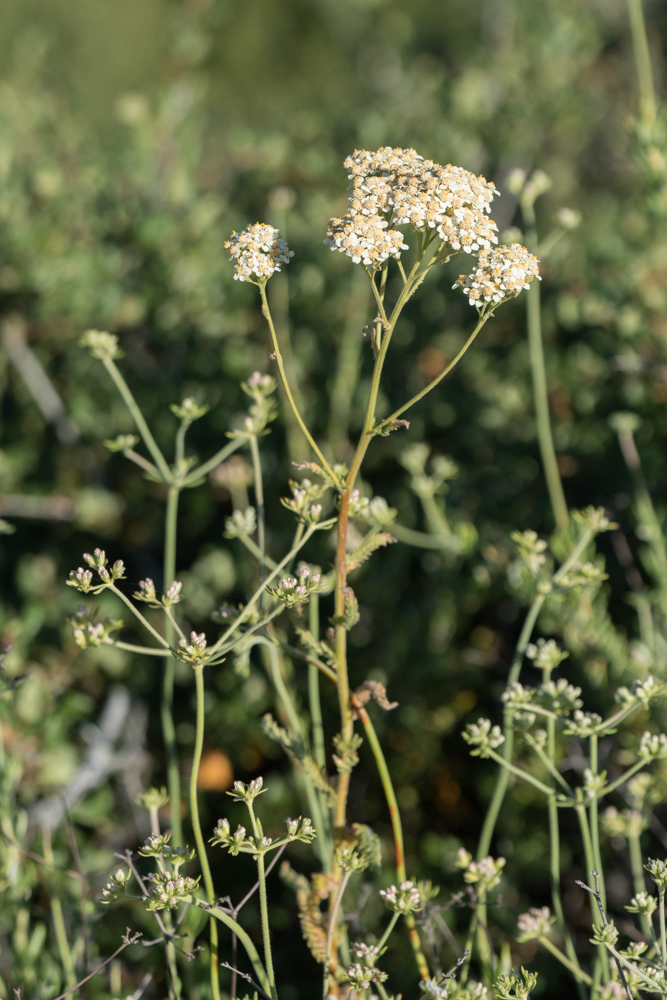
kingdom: Plantae
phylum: Tracheophyta
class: Magnoliopsida
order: Asterales
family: Asteraceae
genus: Achillea
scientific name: Achillea millefolium
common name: Yarrow
